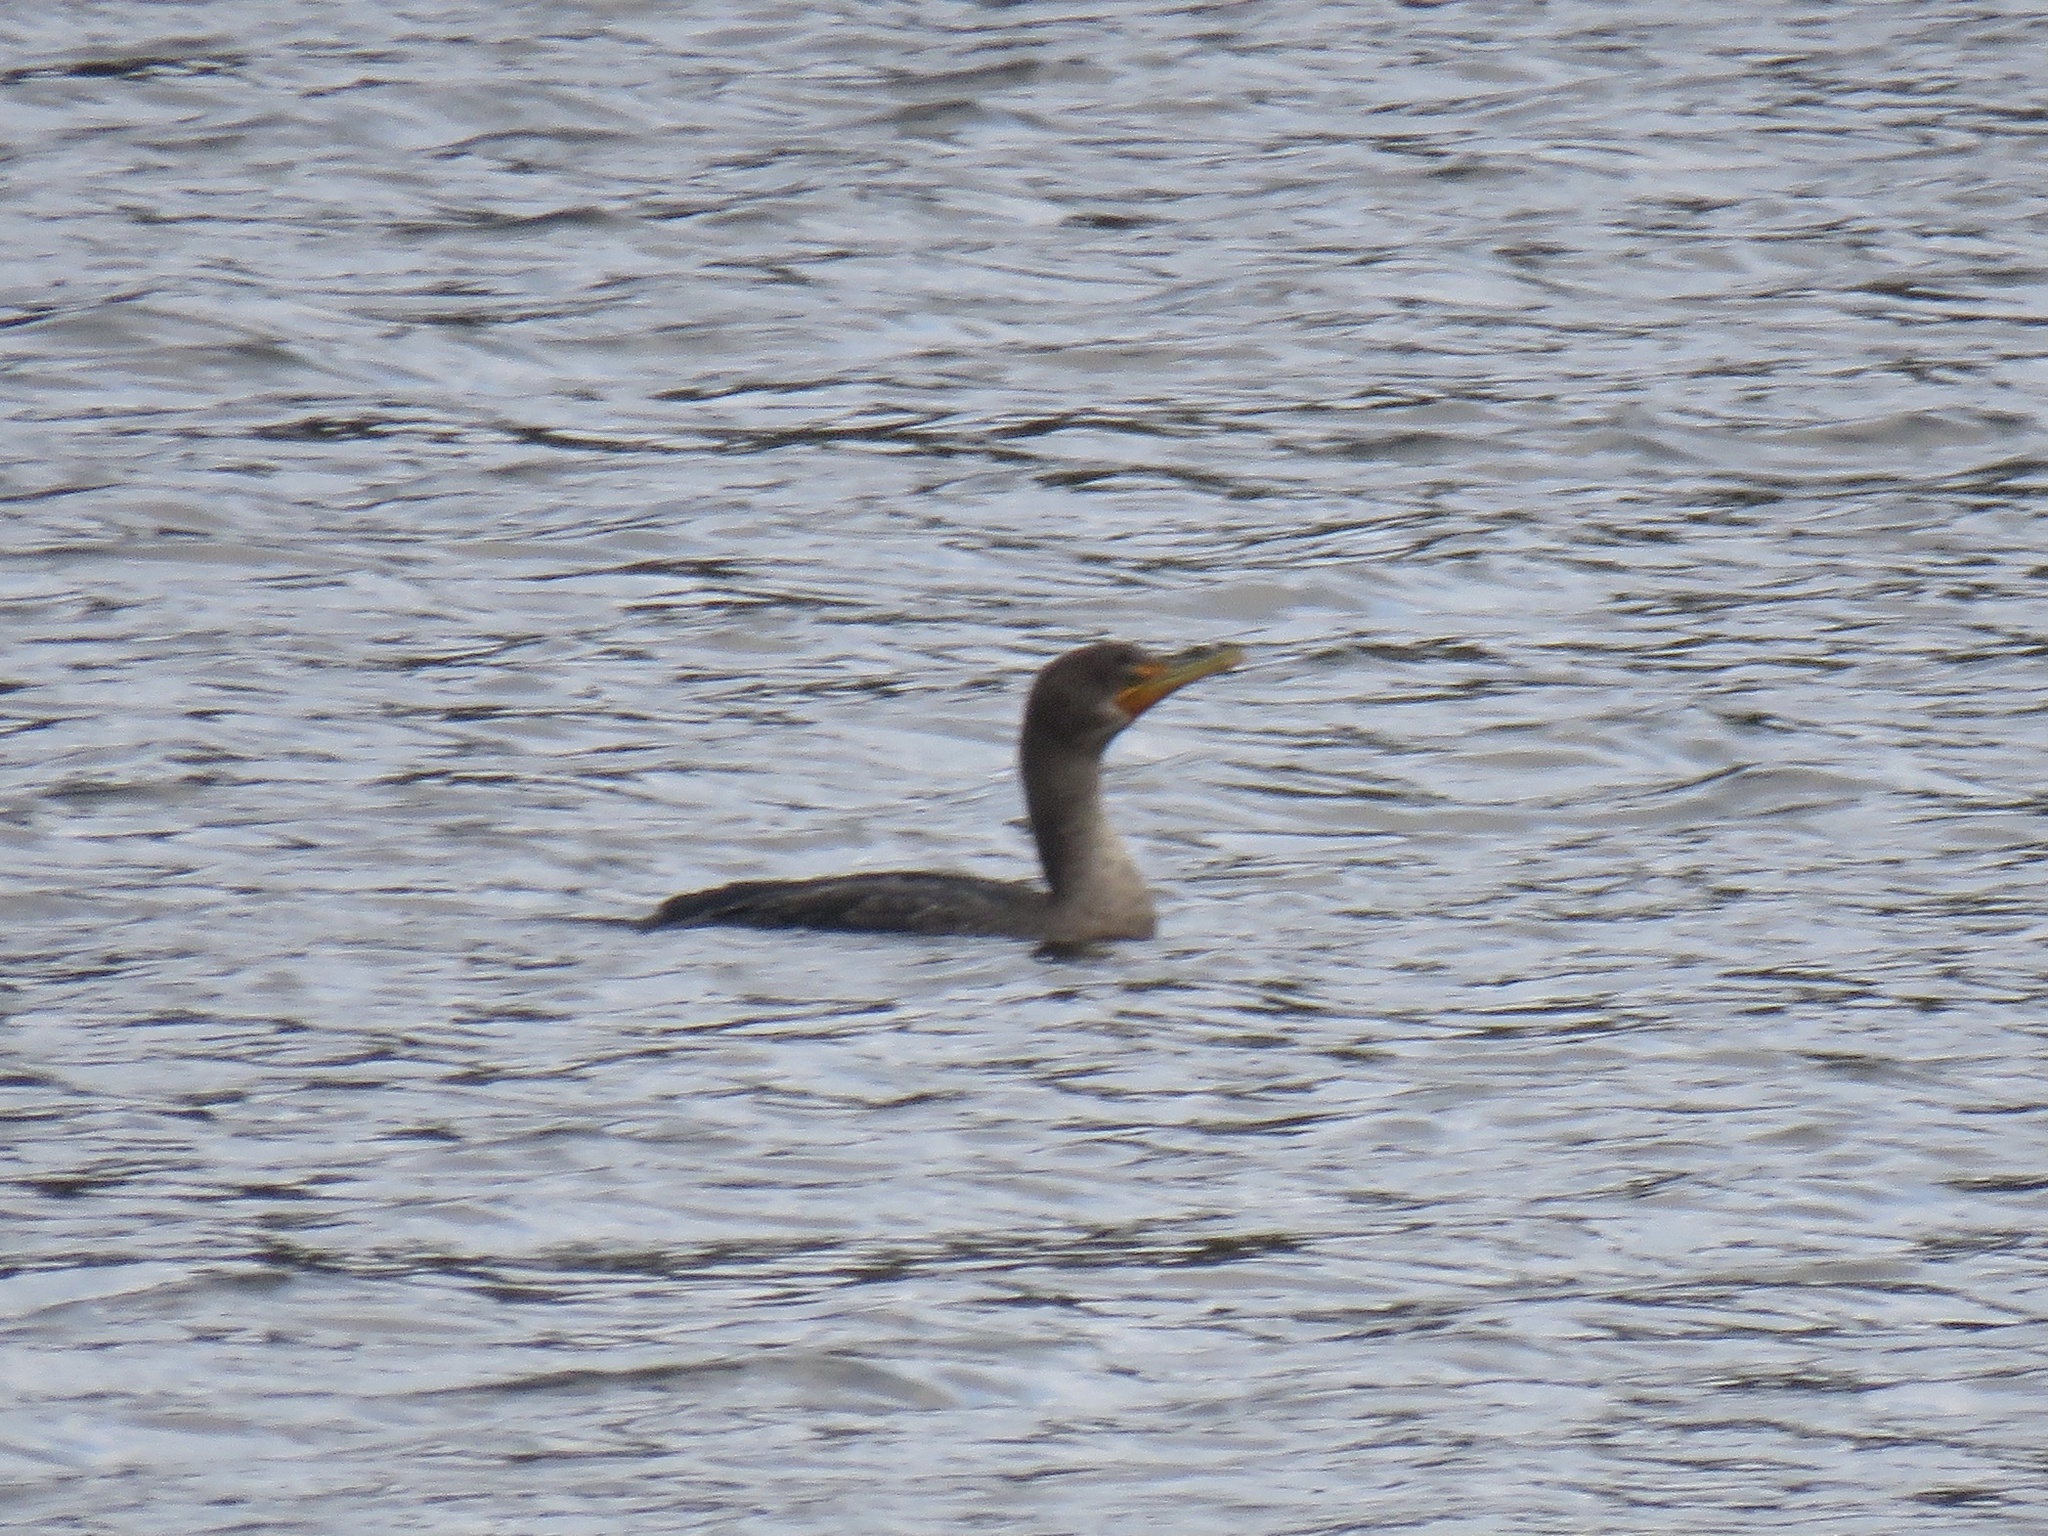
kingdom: Animalia
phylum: Chordata
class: Aves
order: Suliformes
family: Phalacrocoracidae
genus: Phalacrocorax
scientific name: Phalacrocorax auritus
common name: Double-crested cormorant
